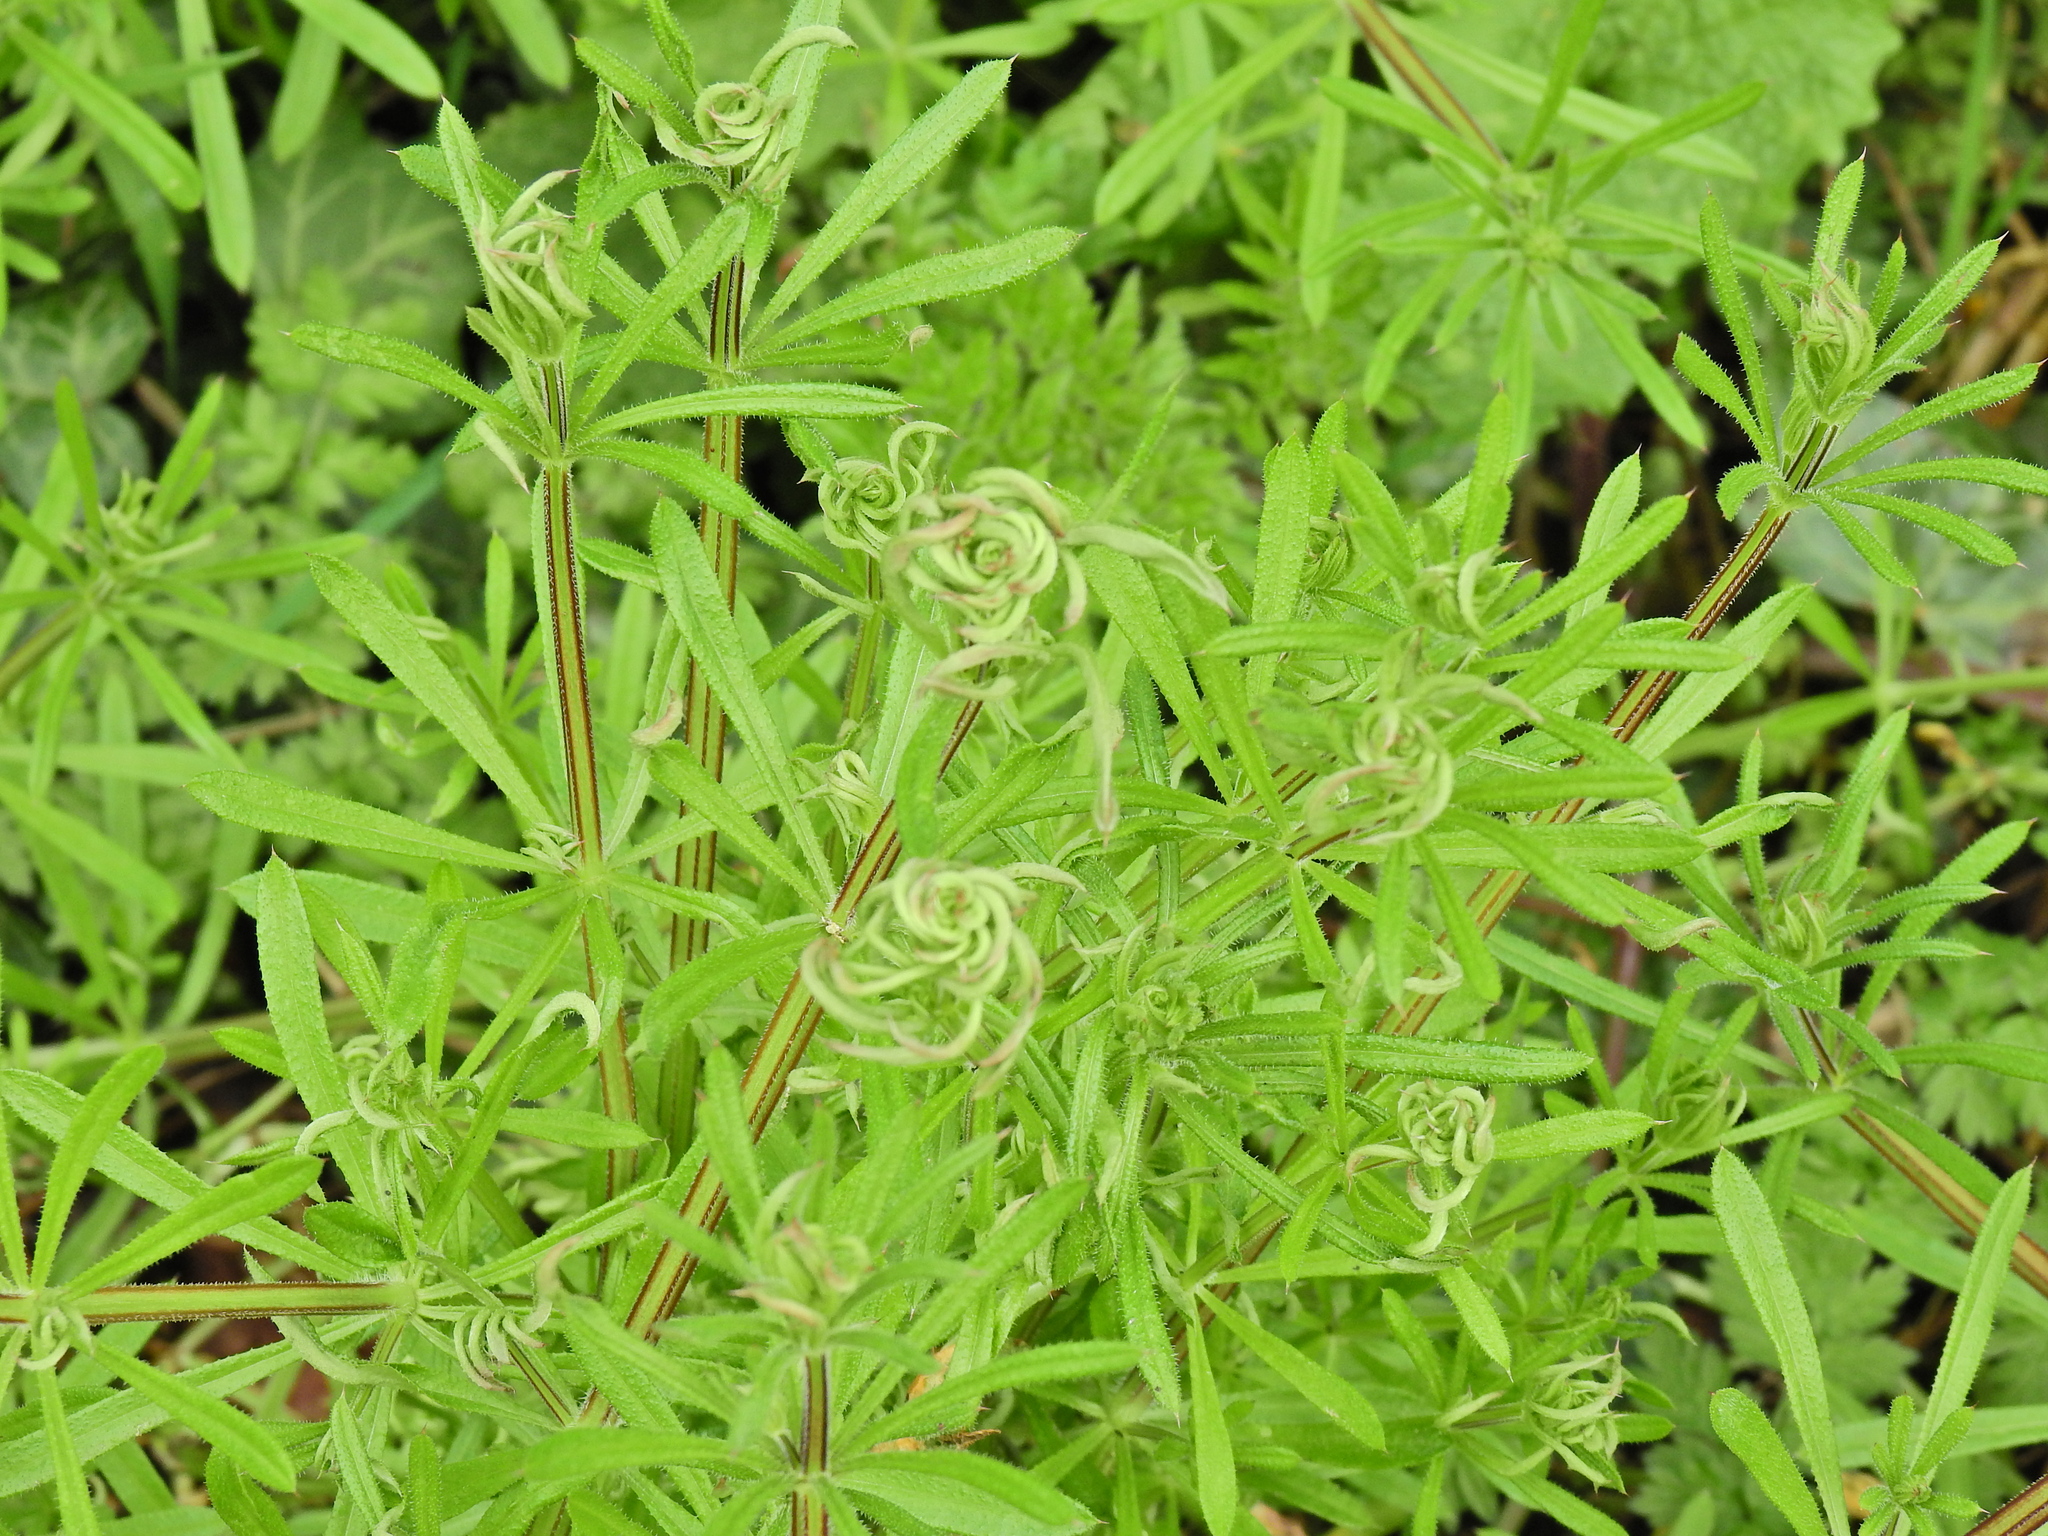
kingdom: Animalia
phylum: Arthropoda
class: Arachnida
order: Trombidiformes
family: Eriophyidae
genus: Cecidophyes
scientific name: Cecidophyes rouhollahi
